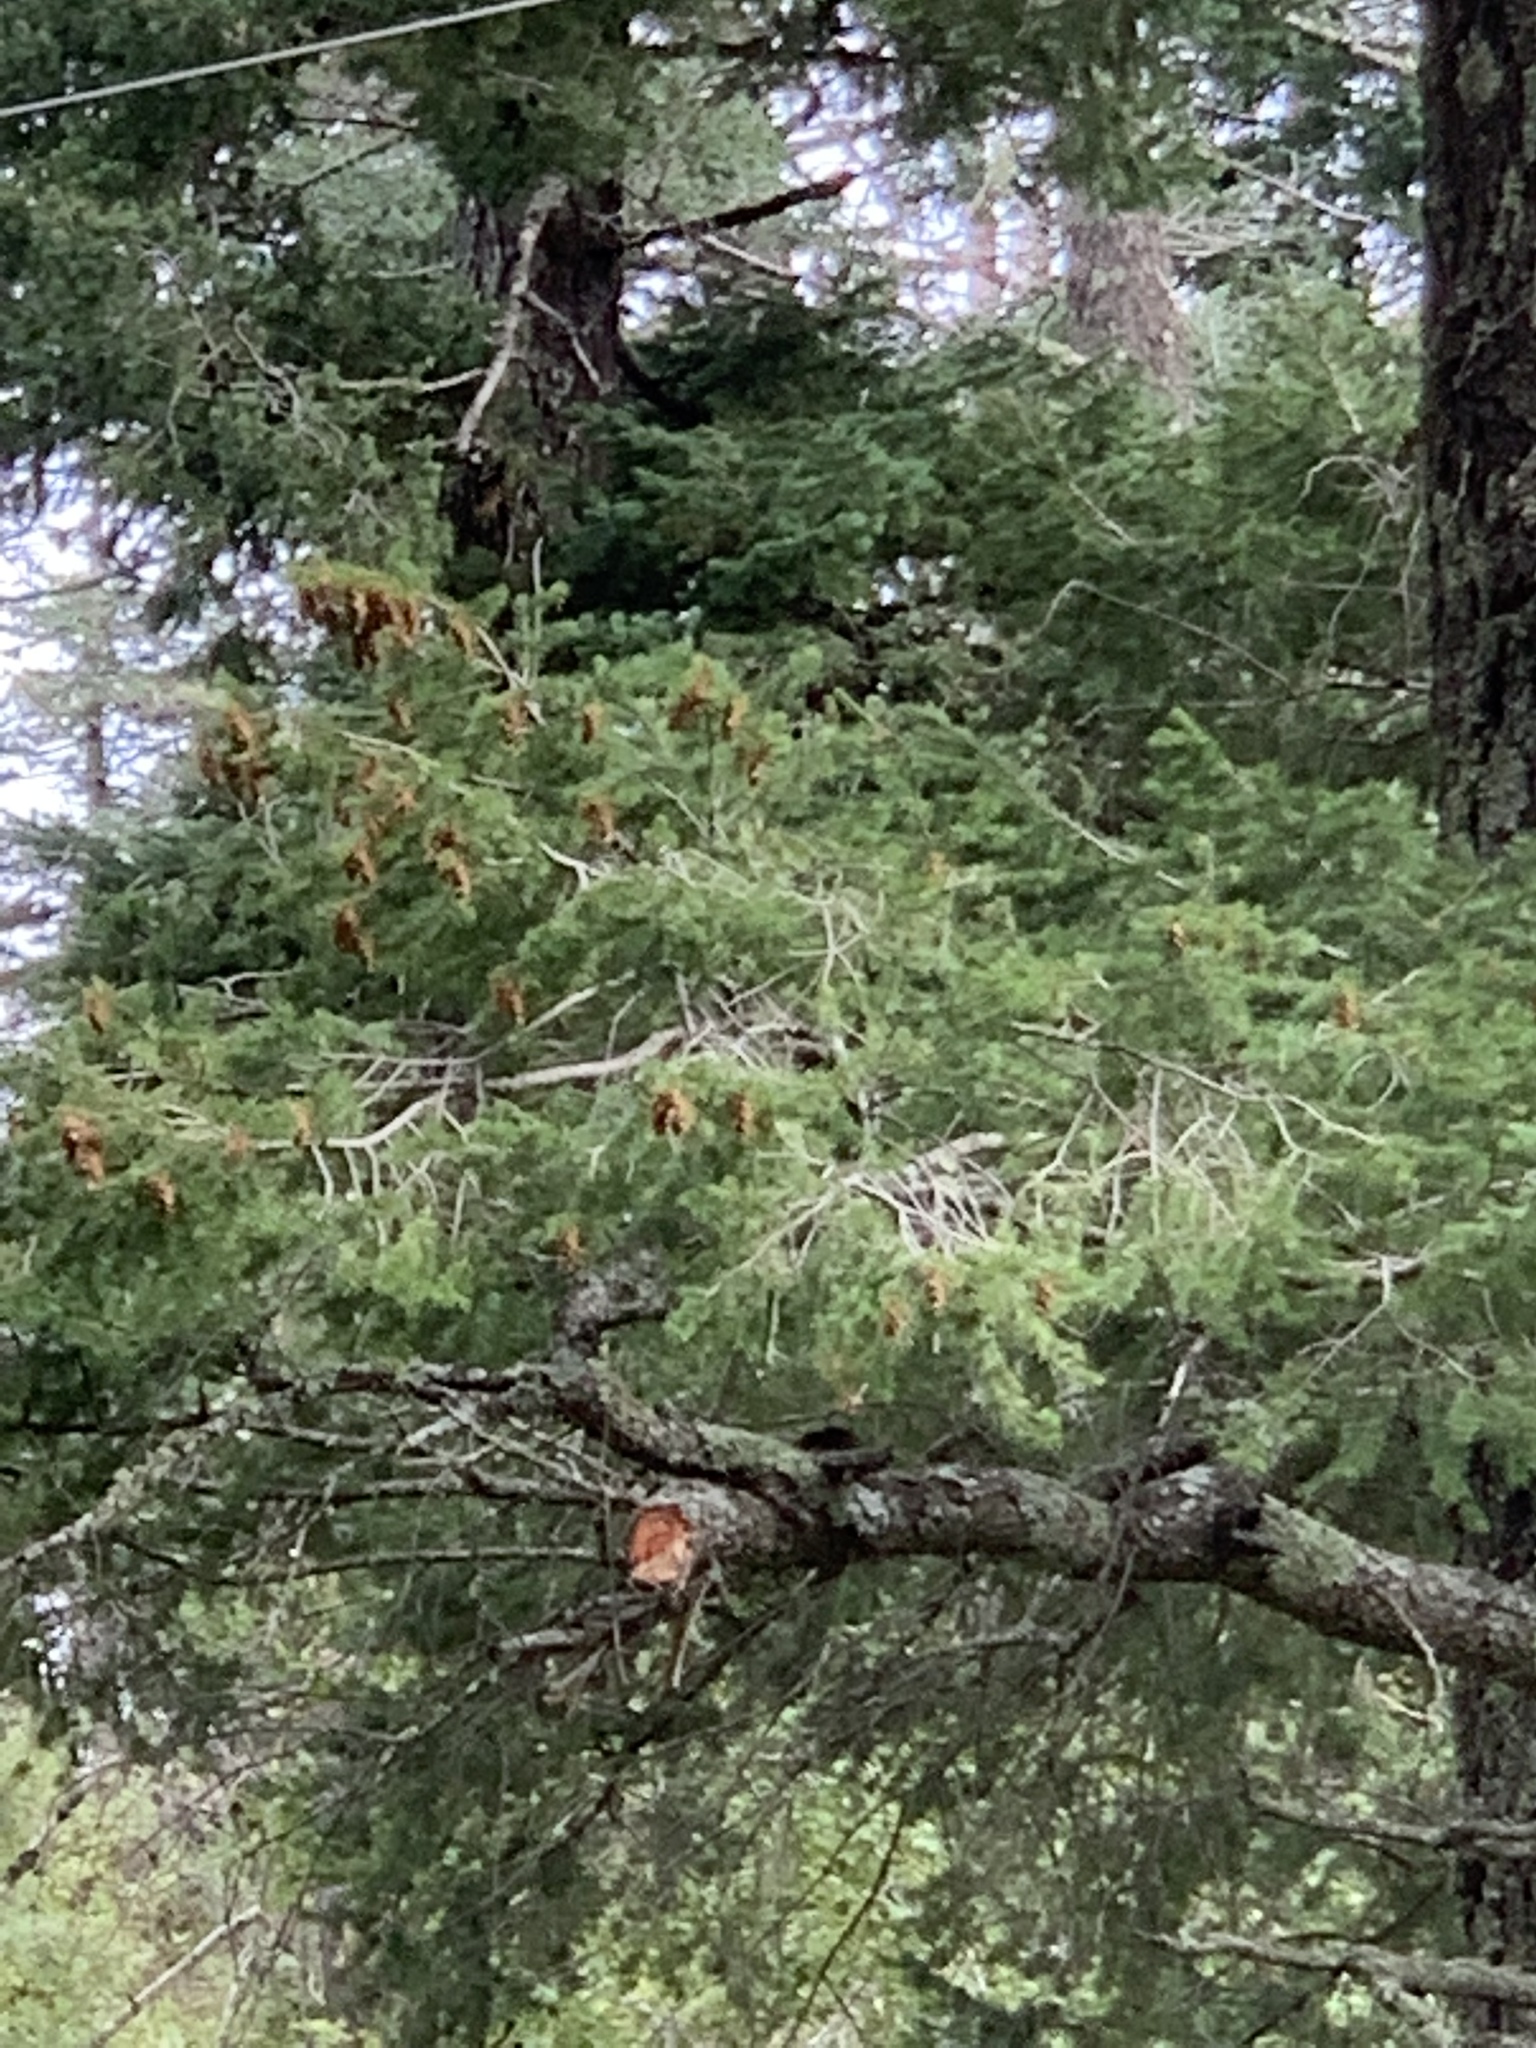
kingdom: Plantae
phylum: Tracheophyta
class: Pinopsida
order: Pinales
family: Pinaceae
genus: Pseudotsuga
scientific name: Pseudotsuga menziesii
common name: Douglas fir
